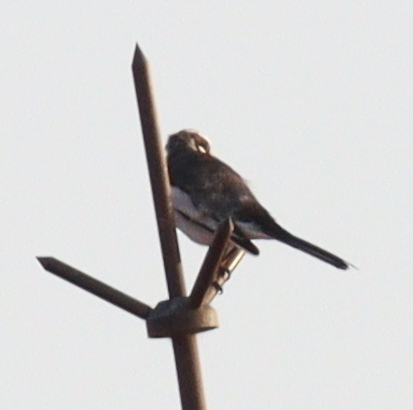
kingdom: Animalia
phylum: Chordata
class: Aves
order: Passeriformes
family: Motacillidae
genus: Motacilla
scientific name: Motacilla aguimp
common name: African pied wagtail
